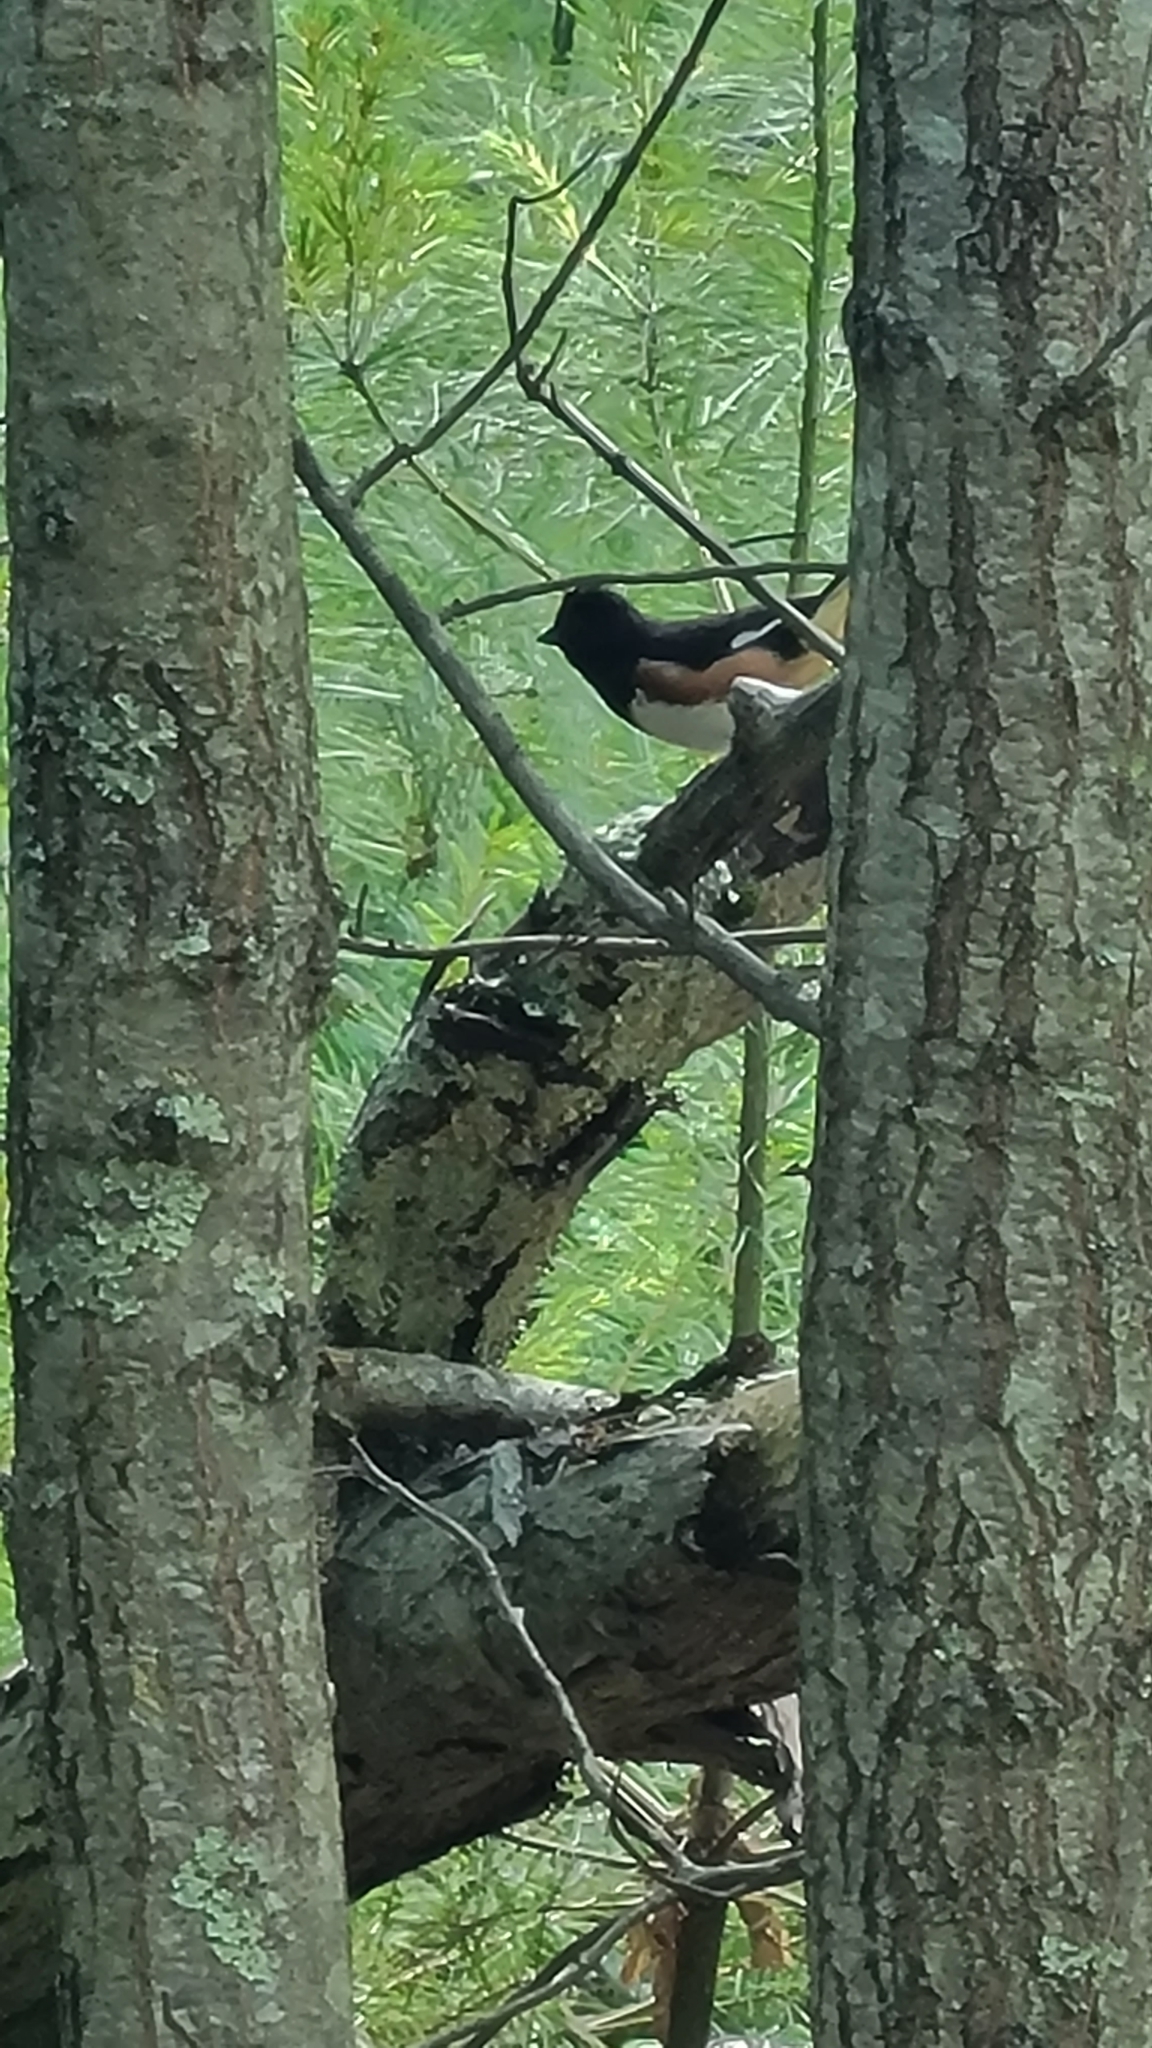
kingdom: Animalia
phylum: Chordata
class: Aves
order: Passeriformes
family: Passerellidae
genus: Pipilo
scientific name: Pipilo erythrophthalmus
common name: Eastern towhee
